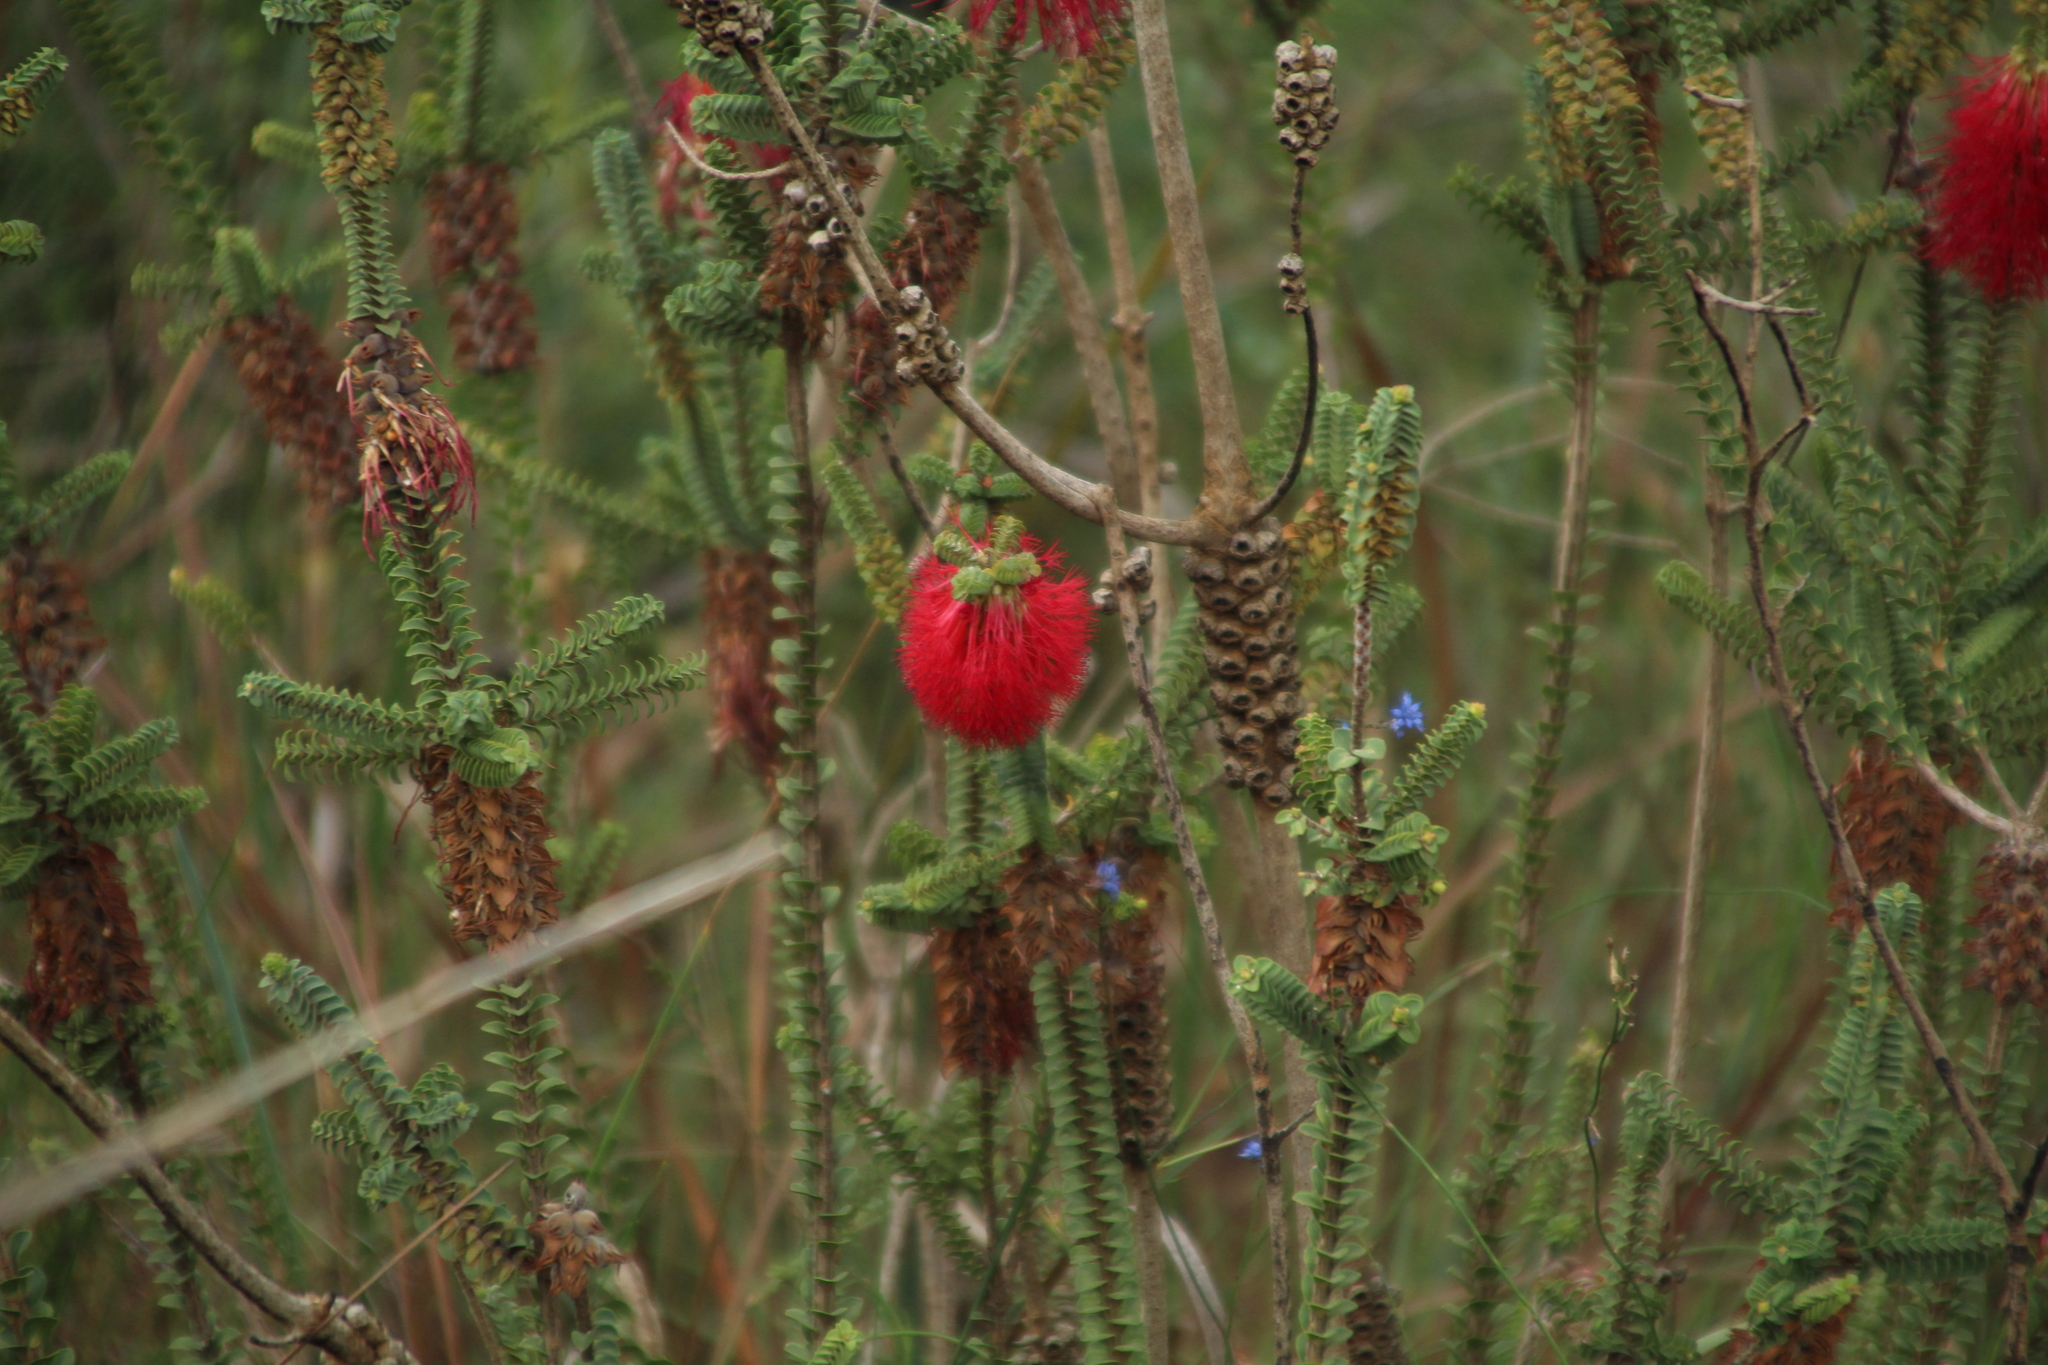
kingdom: Plantae
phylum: Tracheophyta
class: Magnoliopsida
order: Myrtales
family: Myrtaceae
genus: Melaleuca
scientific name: Melaleuca transversa
